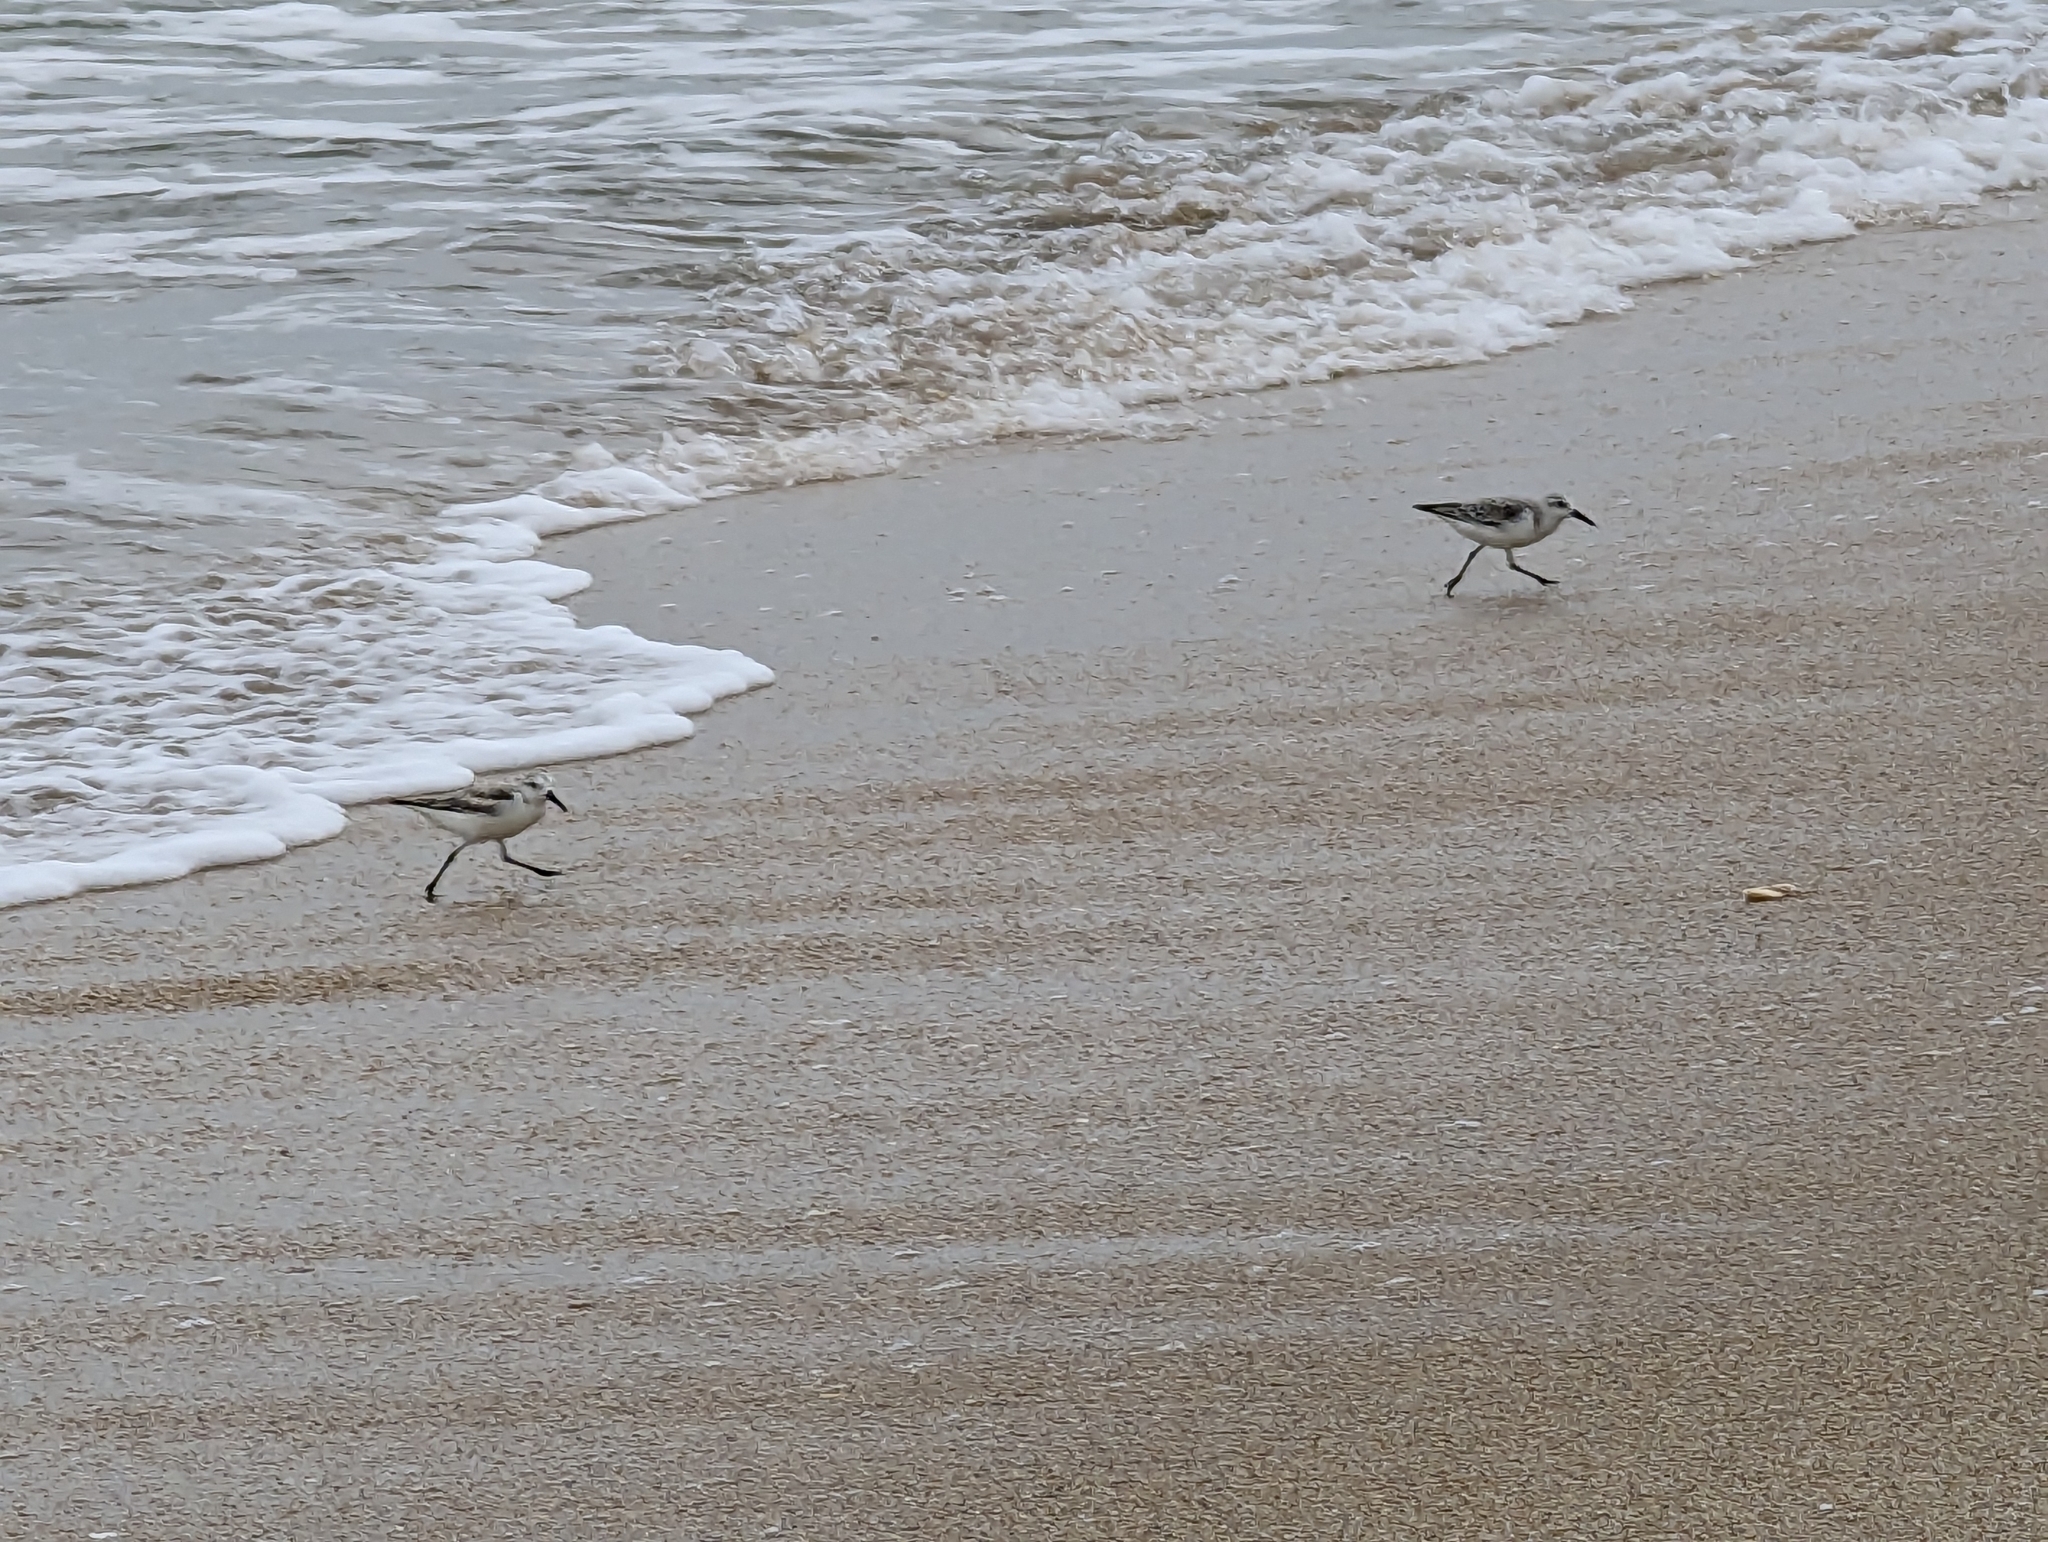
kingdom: Animalia
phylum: Chordata
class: Aves
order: Charadriiformes
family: Scolopacidae
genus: Calidris
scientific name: Calidris alba
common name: Sanderling
